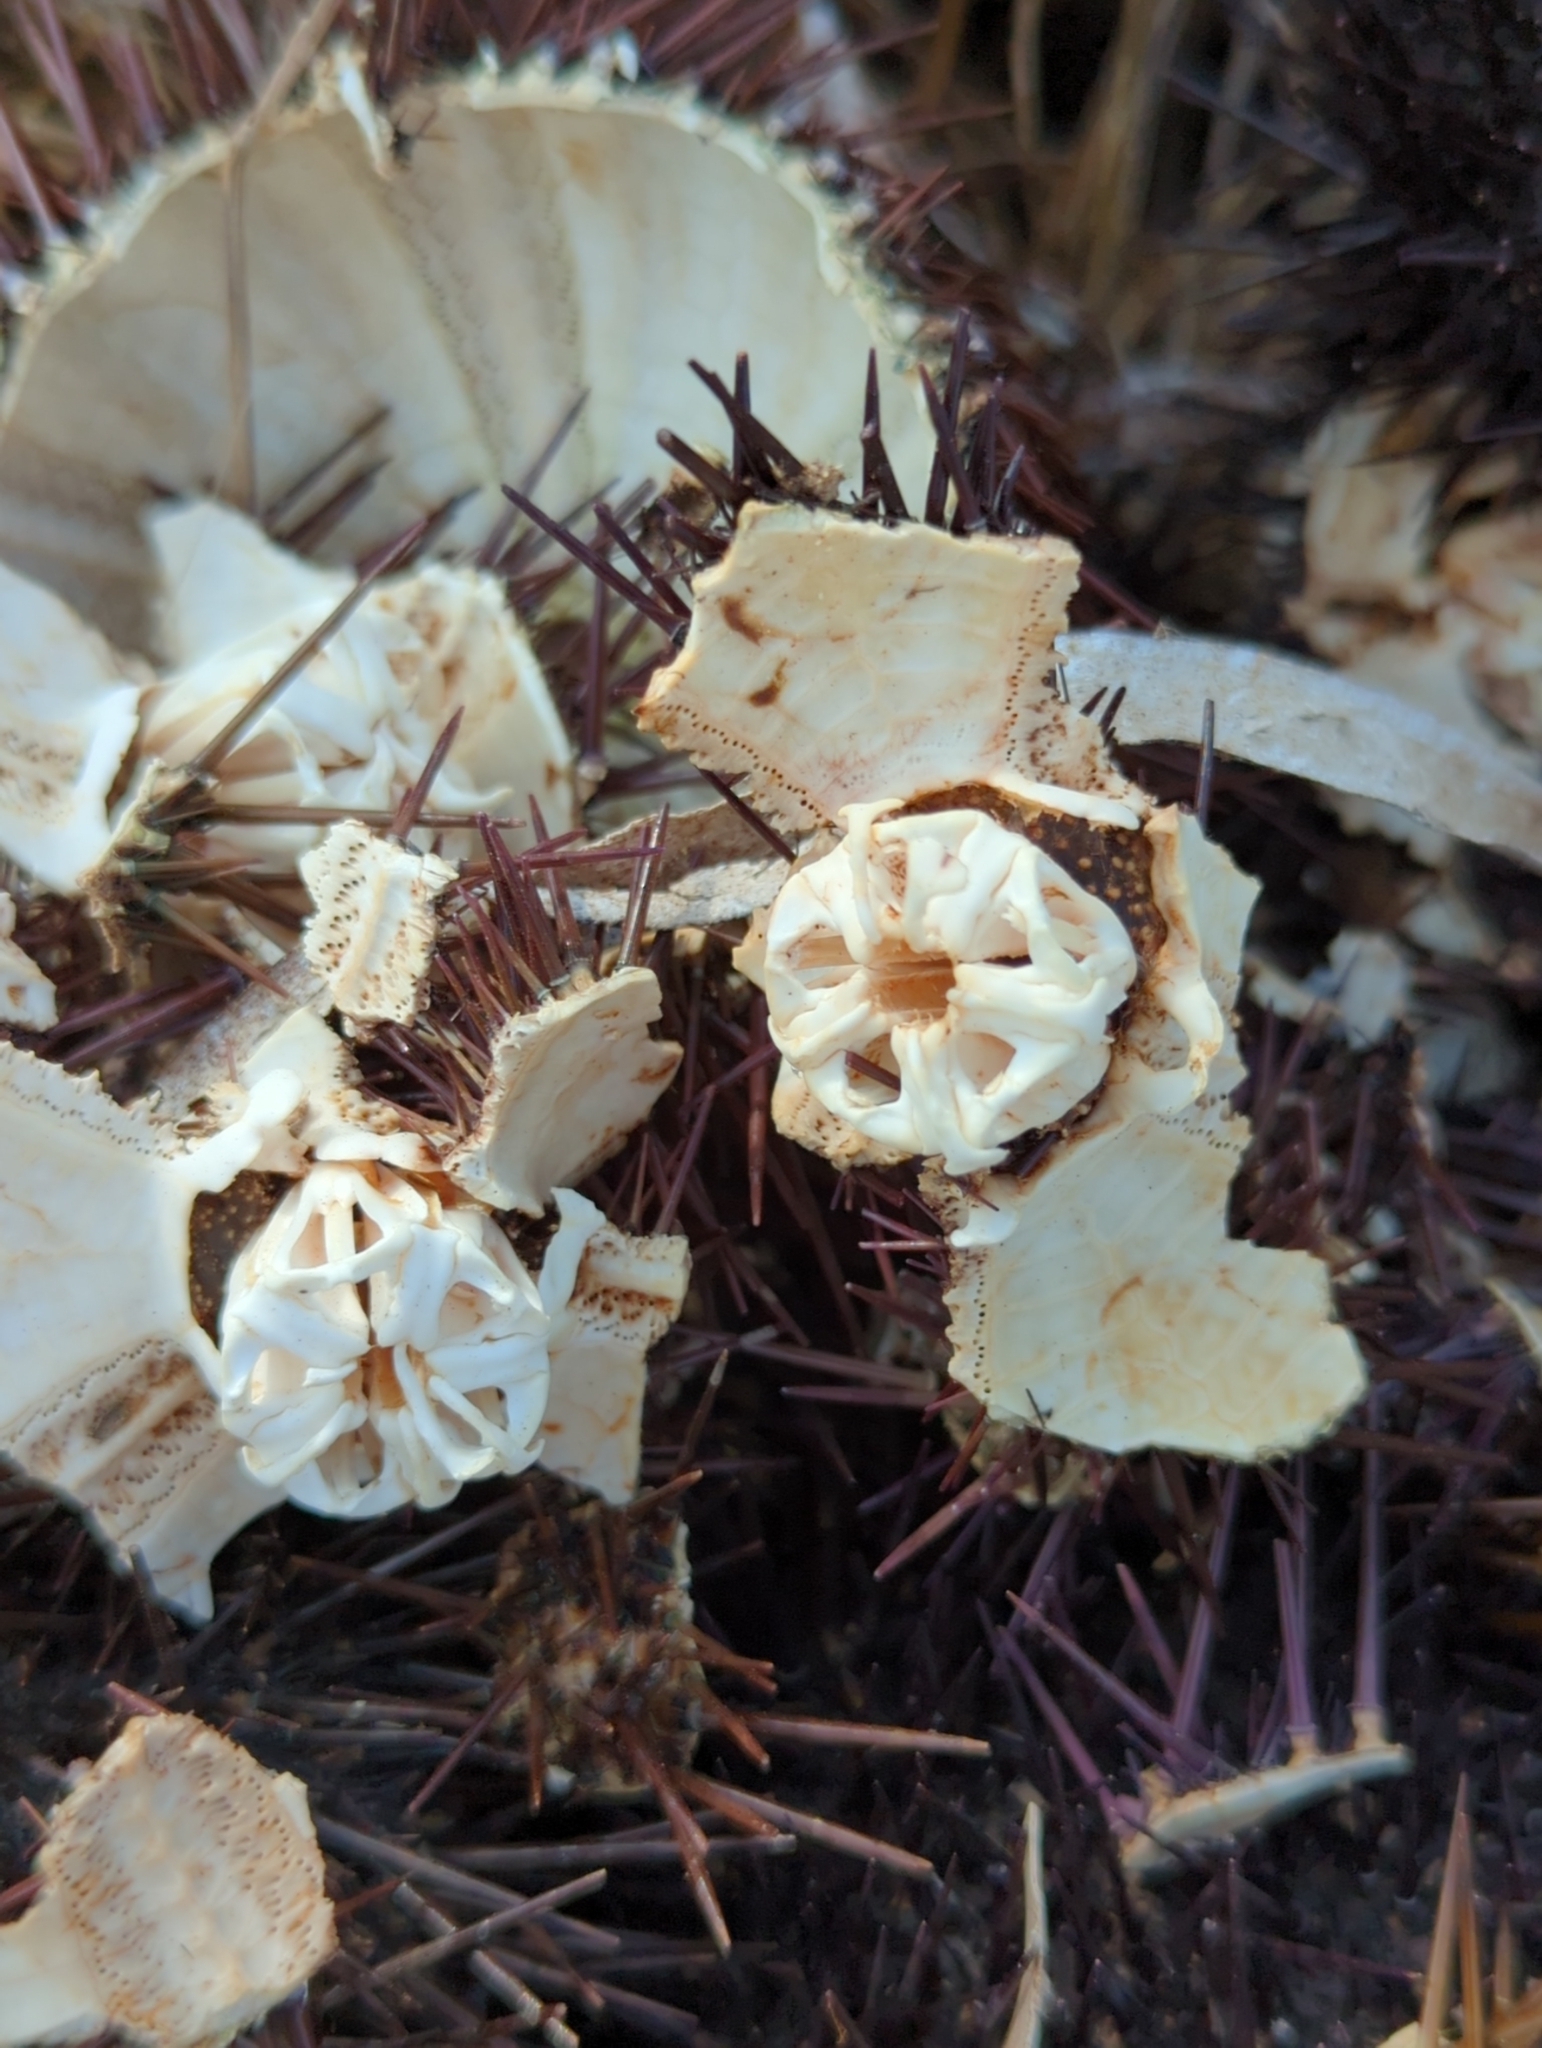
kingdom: Animalia
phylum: Echinodermata
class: Echinoidea
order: Camarodonta
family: Parechinidae
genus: Paracentrotus
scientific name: Paracentrotus lividus
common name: Purple sea urchin
